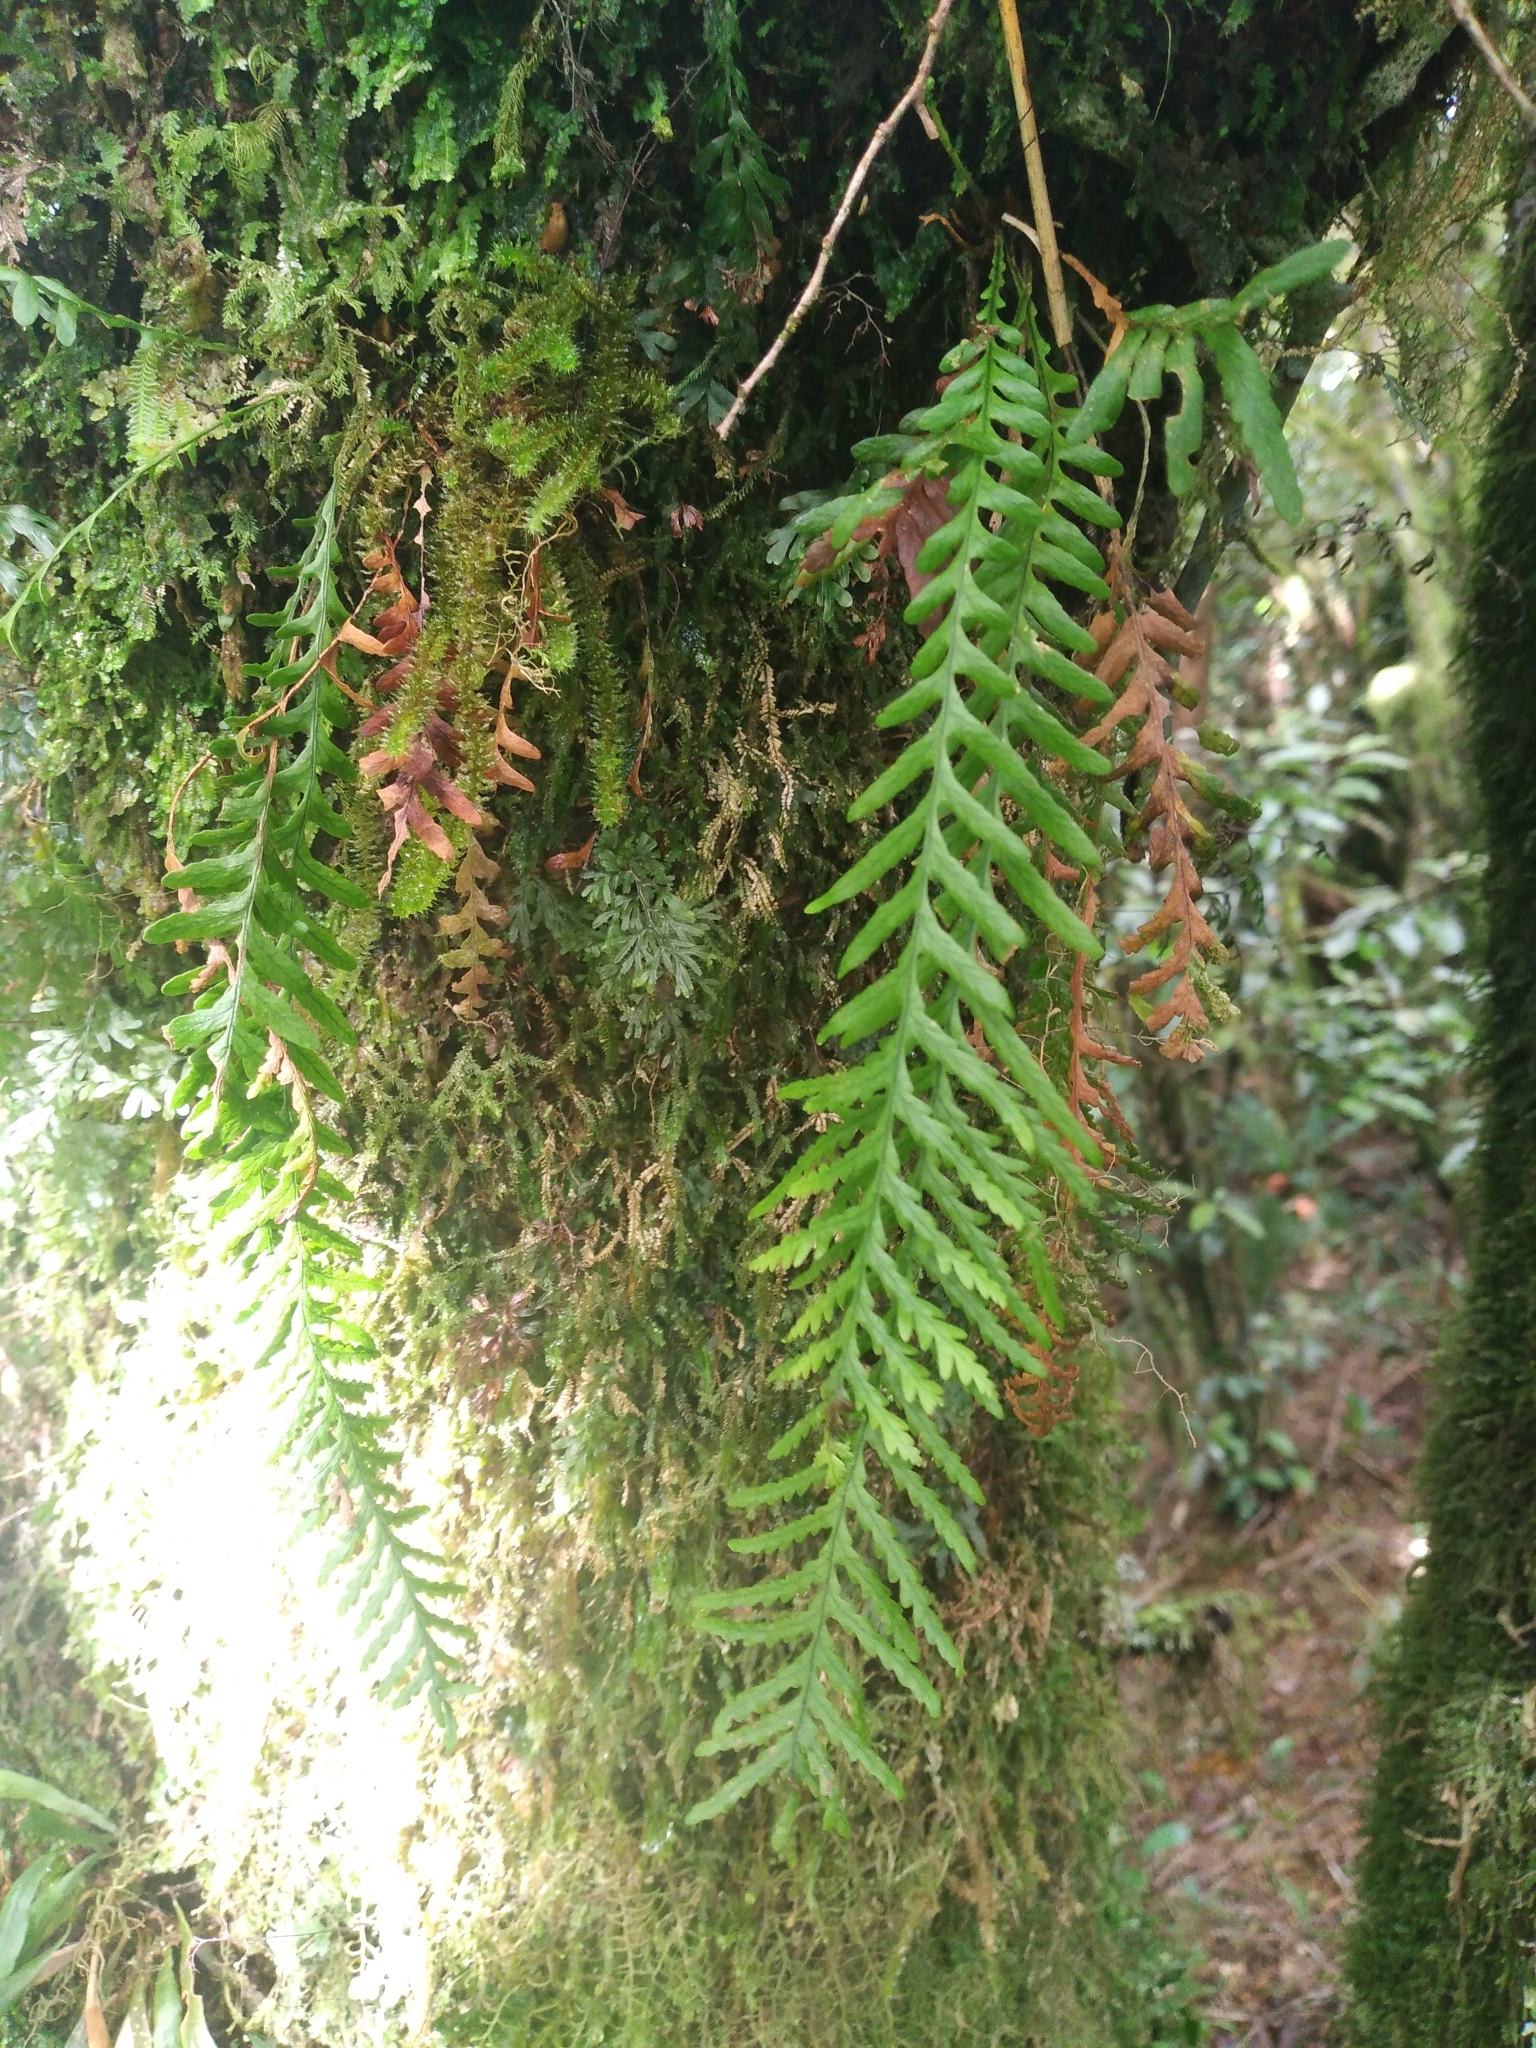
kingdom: Plantae
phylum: Tracheophyta
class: Polypodiopsida
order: Polypodiales
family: Polypodiaceae
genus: Notogrammitis
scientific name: Notogrammitis heterophylla
